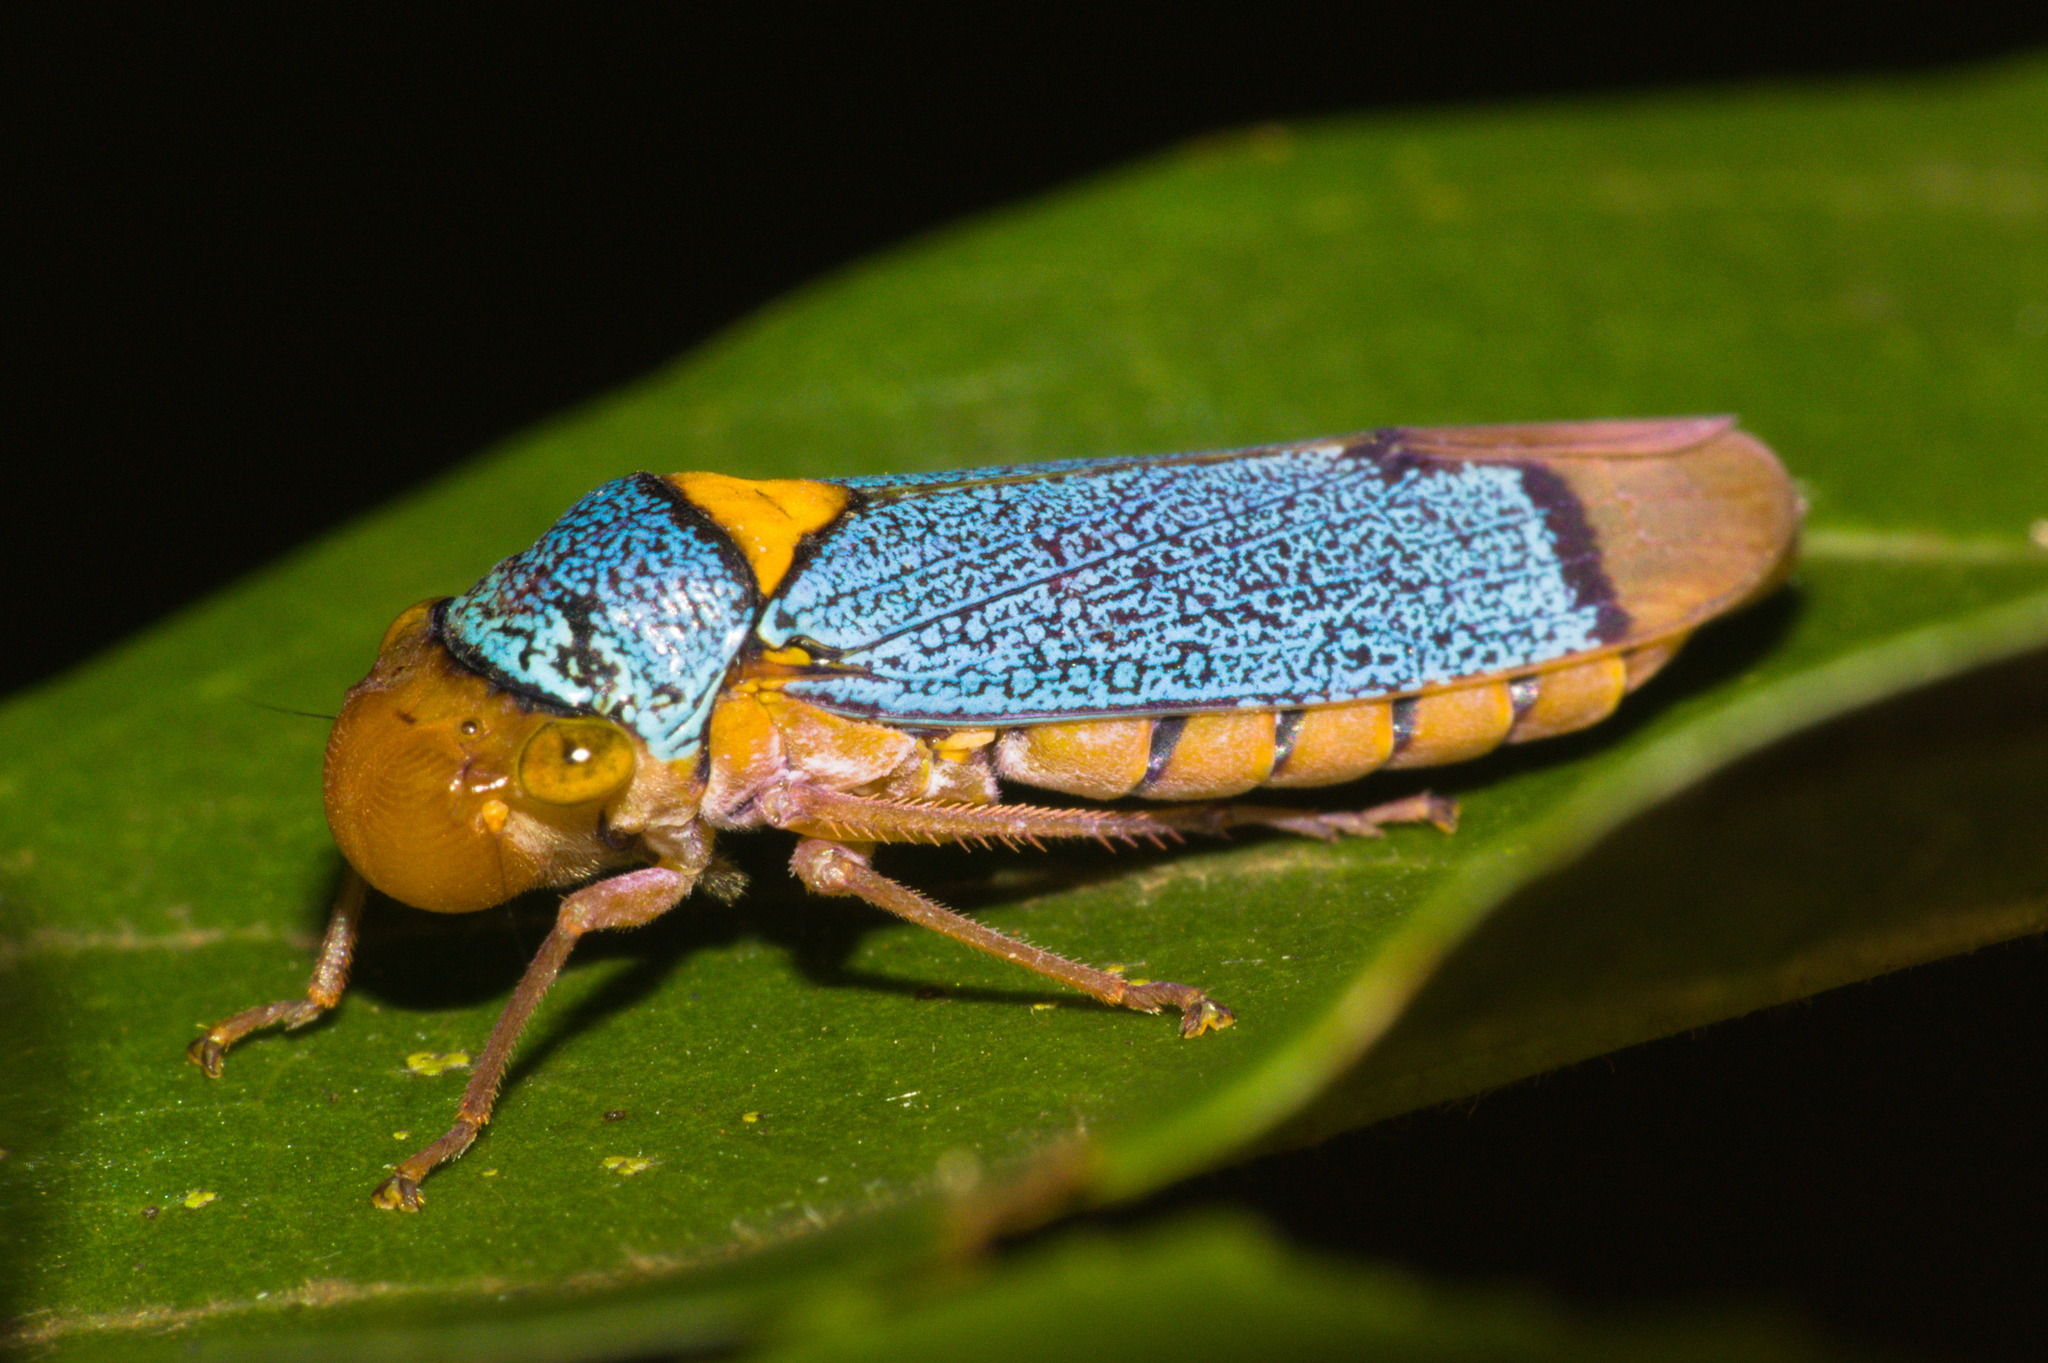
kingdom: Animalia
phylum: Arthropoda
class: Insecta
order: Hemiptera
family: Cicadellidae
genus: Molomea
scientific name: Molomea xanthocephala
